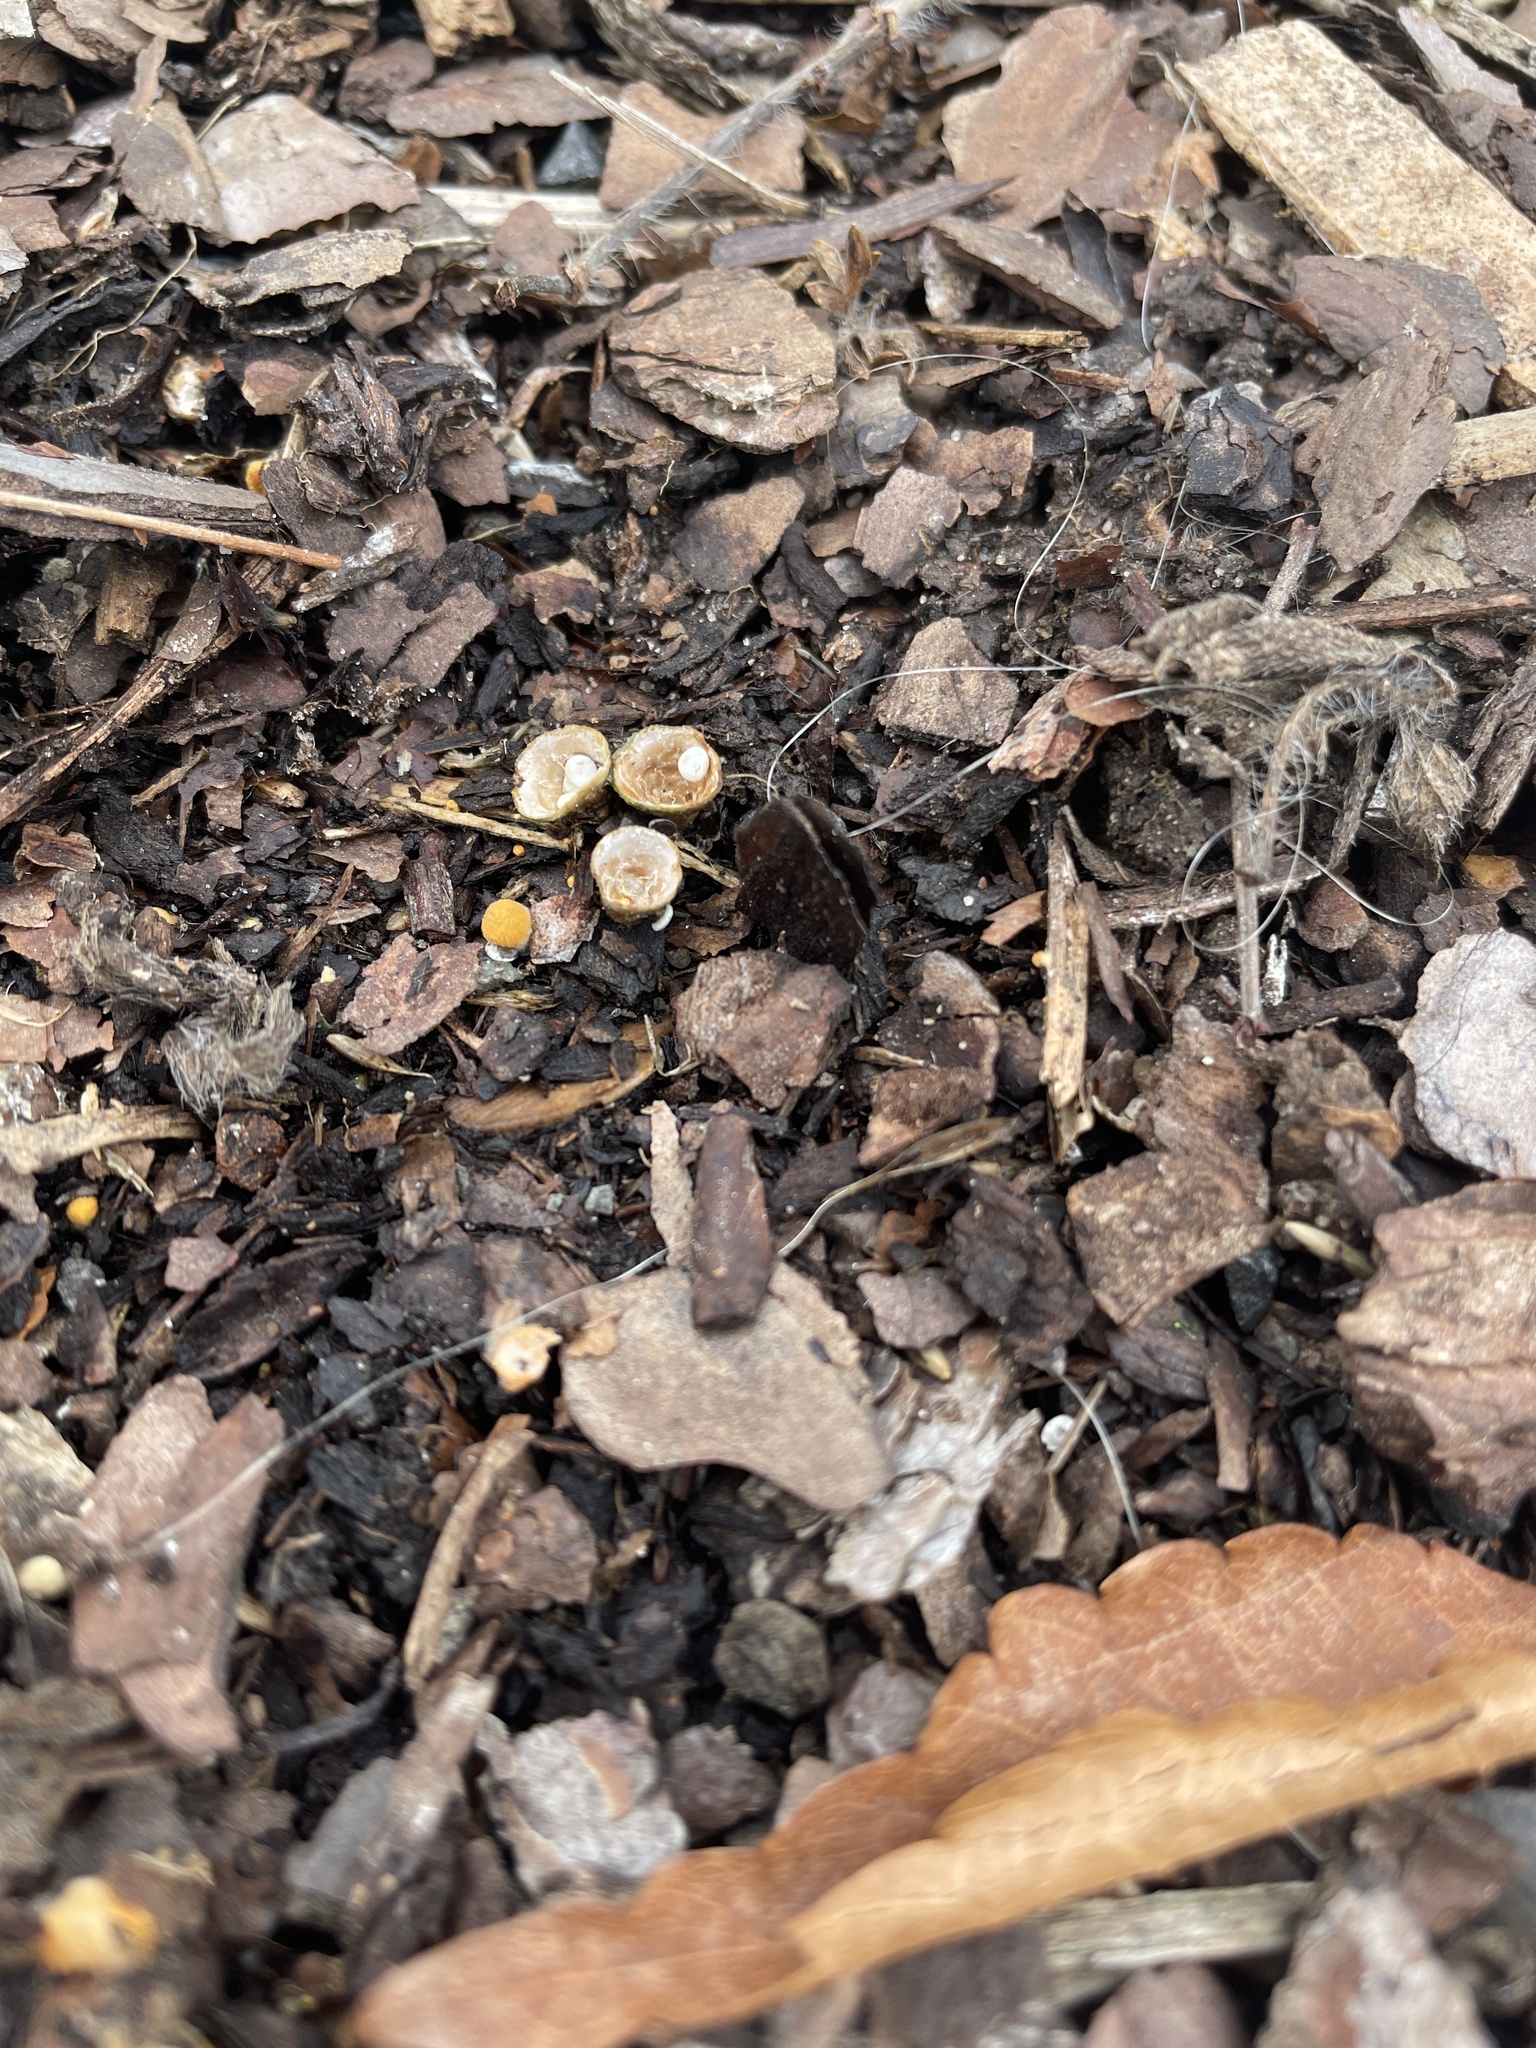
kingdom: Fungi
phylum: Basidiomycota
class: Agaricomycetes
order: Agaricales
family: Nidulariaceae
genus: Crucibulum
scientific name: Crucibulum laeve
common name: Common bird's nest
